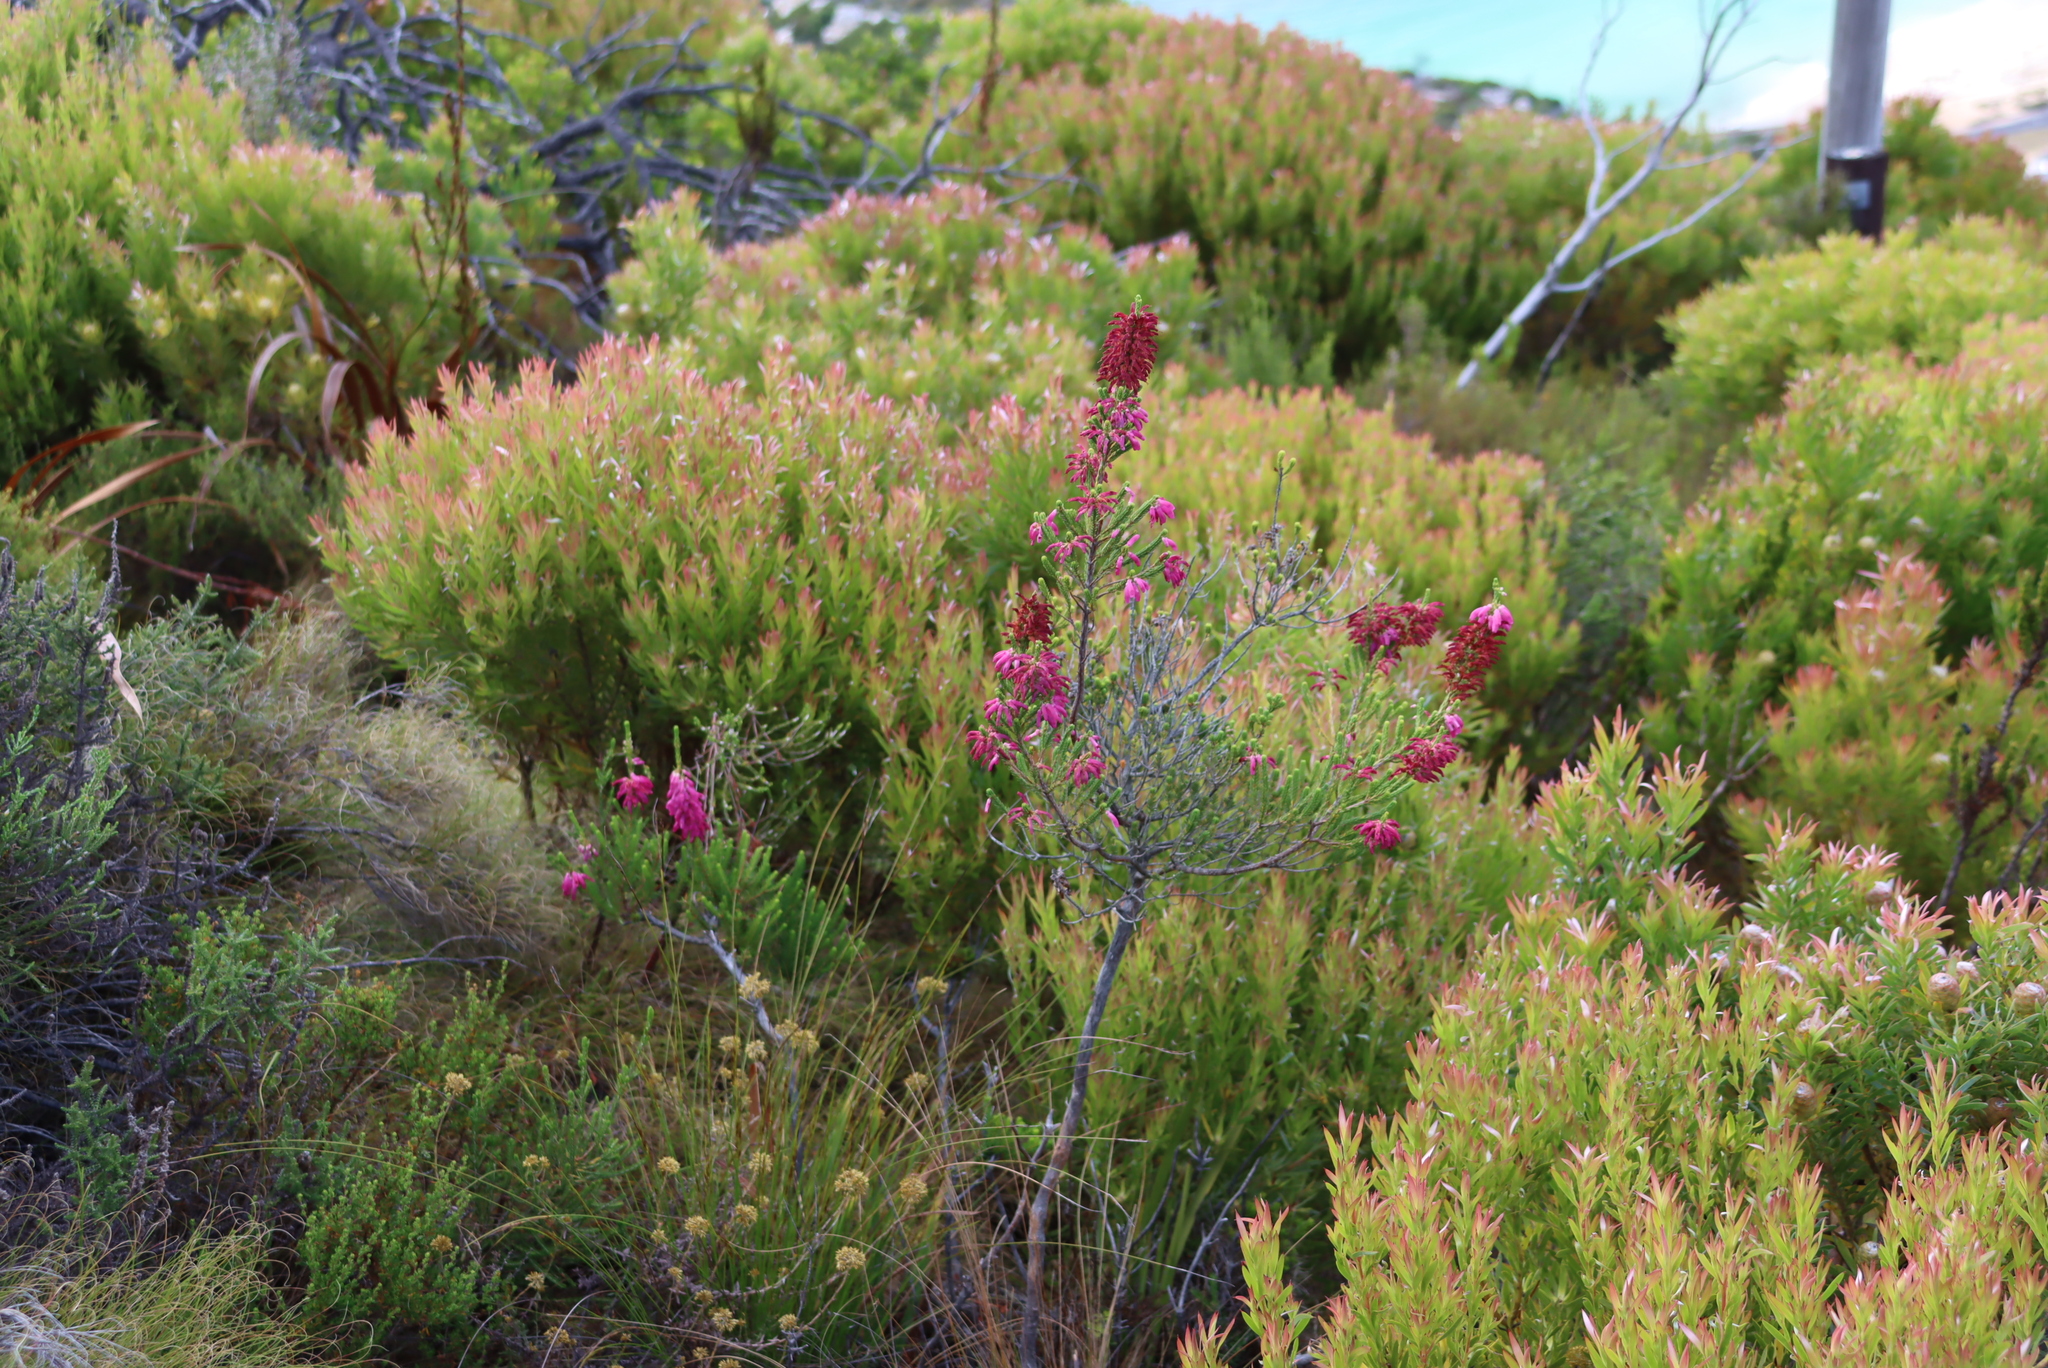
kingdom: Plantae
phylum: Tracheophyta
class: Magnoliopsida
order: Ericales
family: Ericaceae
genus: Erica
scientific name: Erica mammosa
